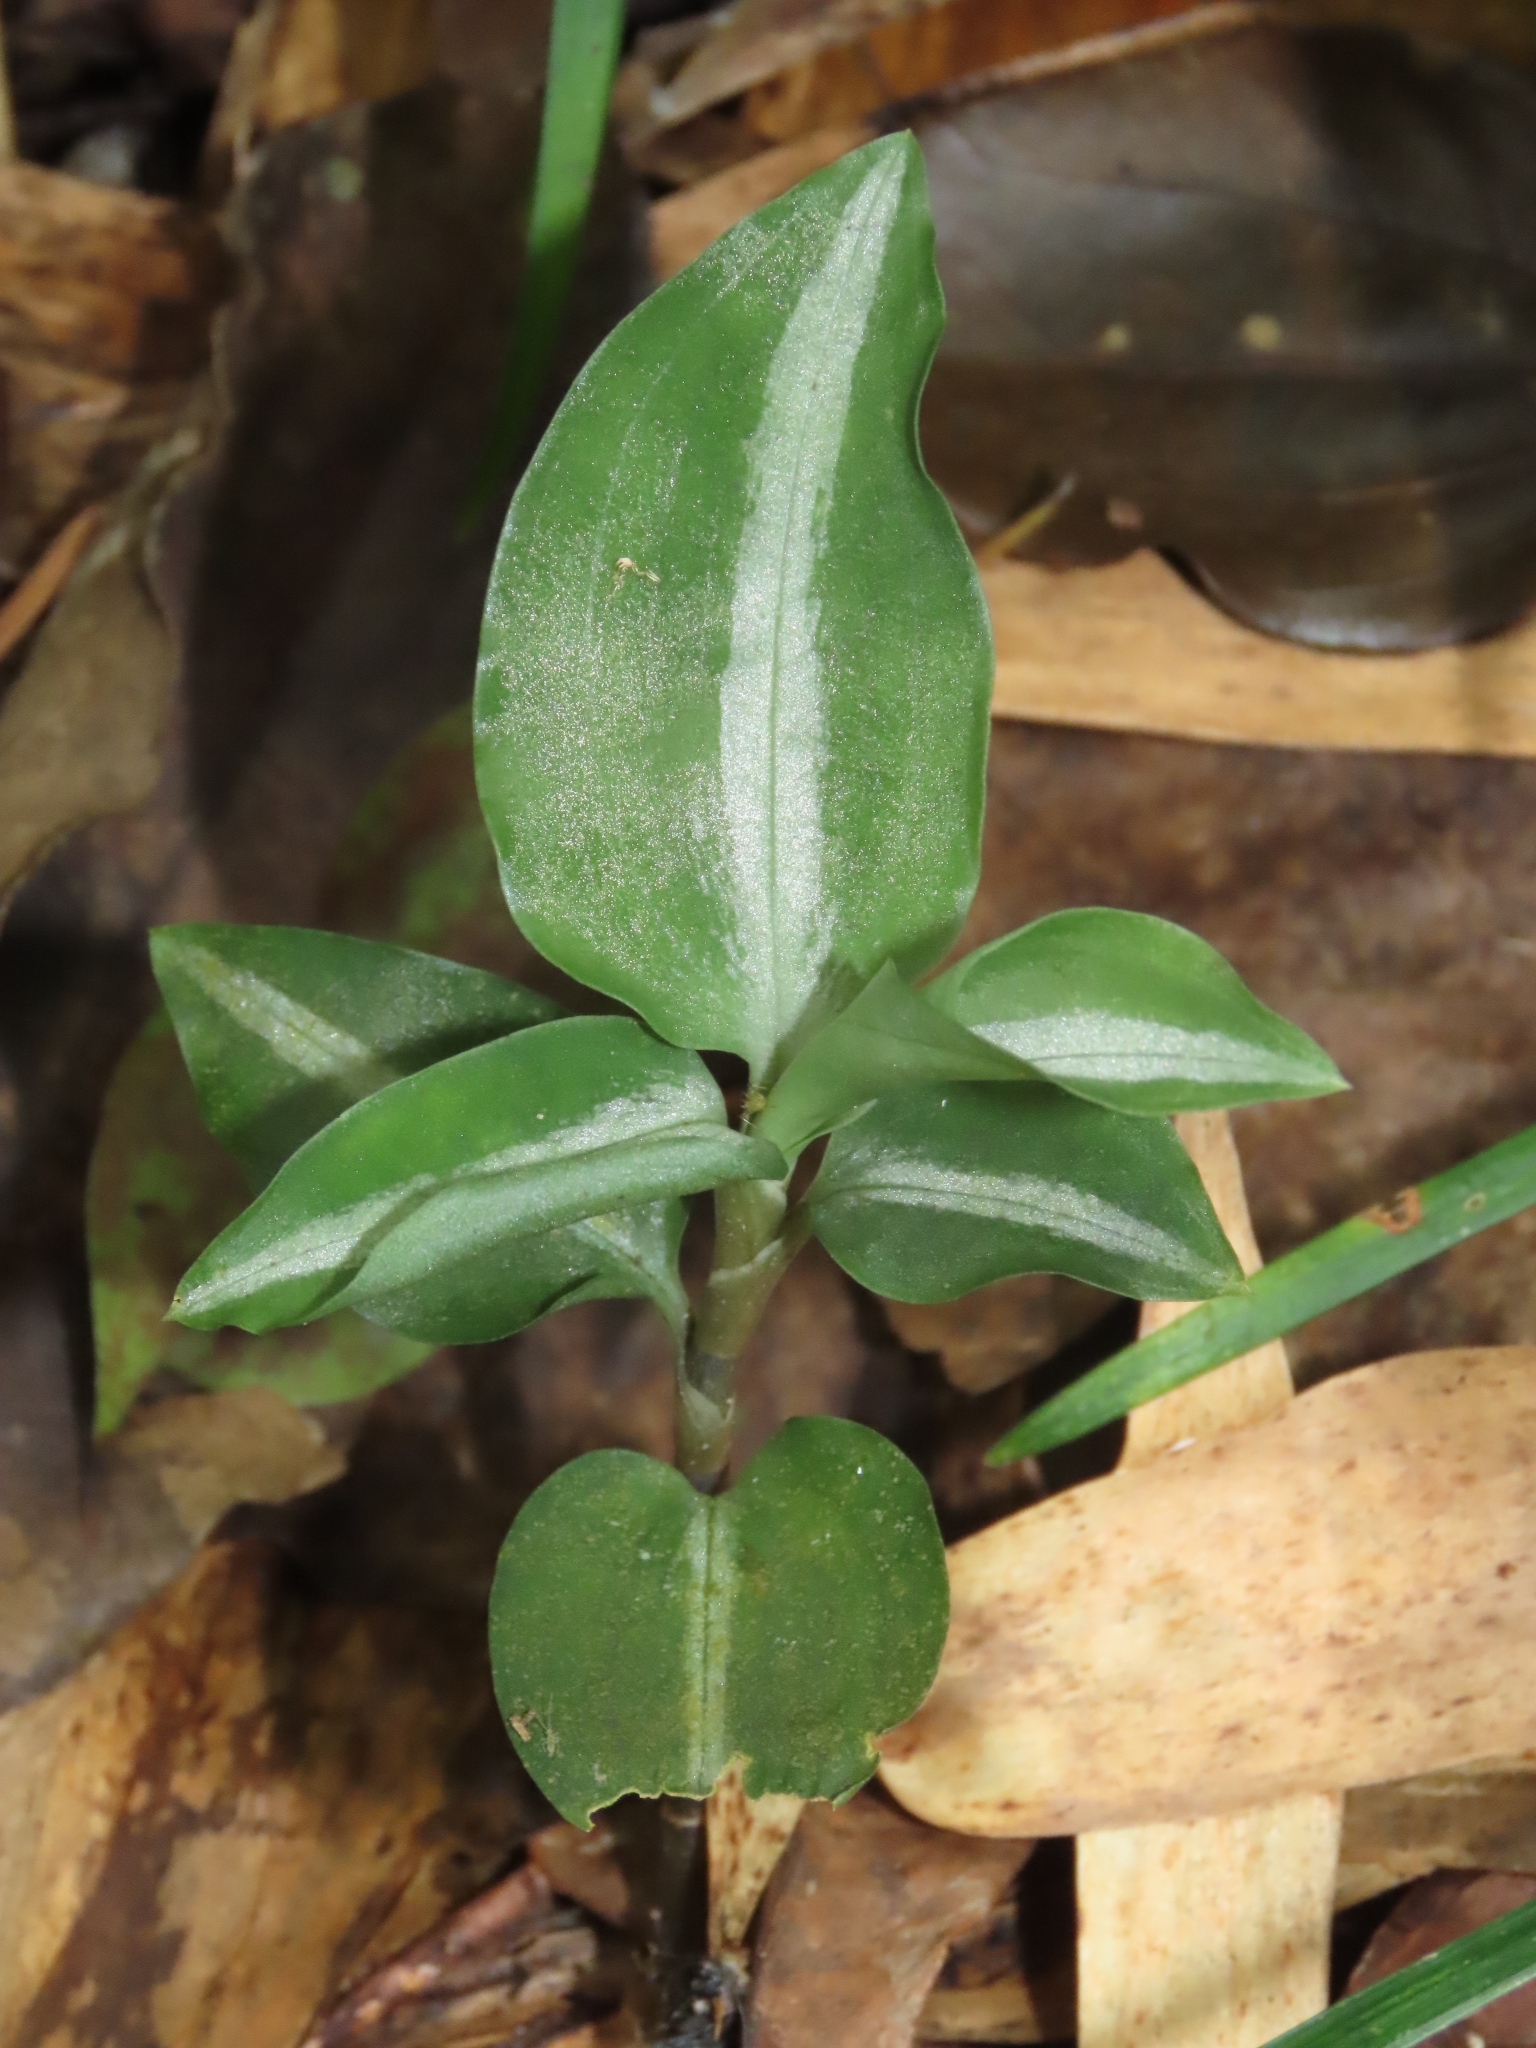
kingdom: Plantae
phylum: Tracheophyta
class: Liliopsida
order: Asparagales
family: Orchidaceae
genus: Zeuxine
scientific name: Zeuxine nervosa
